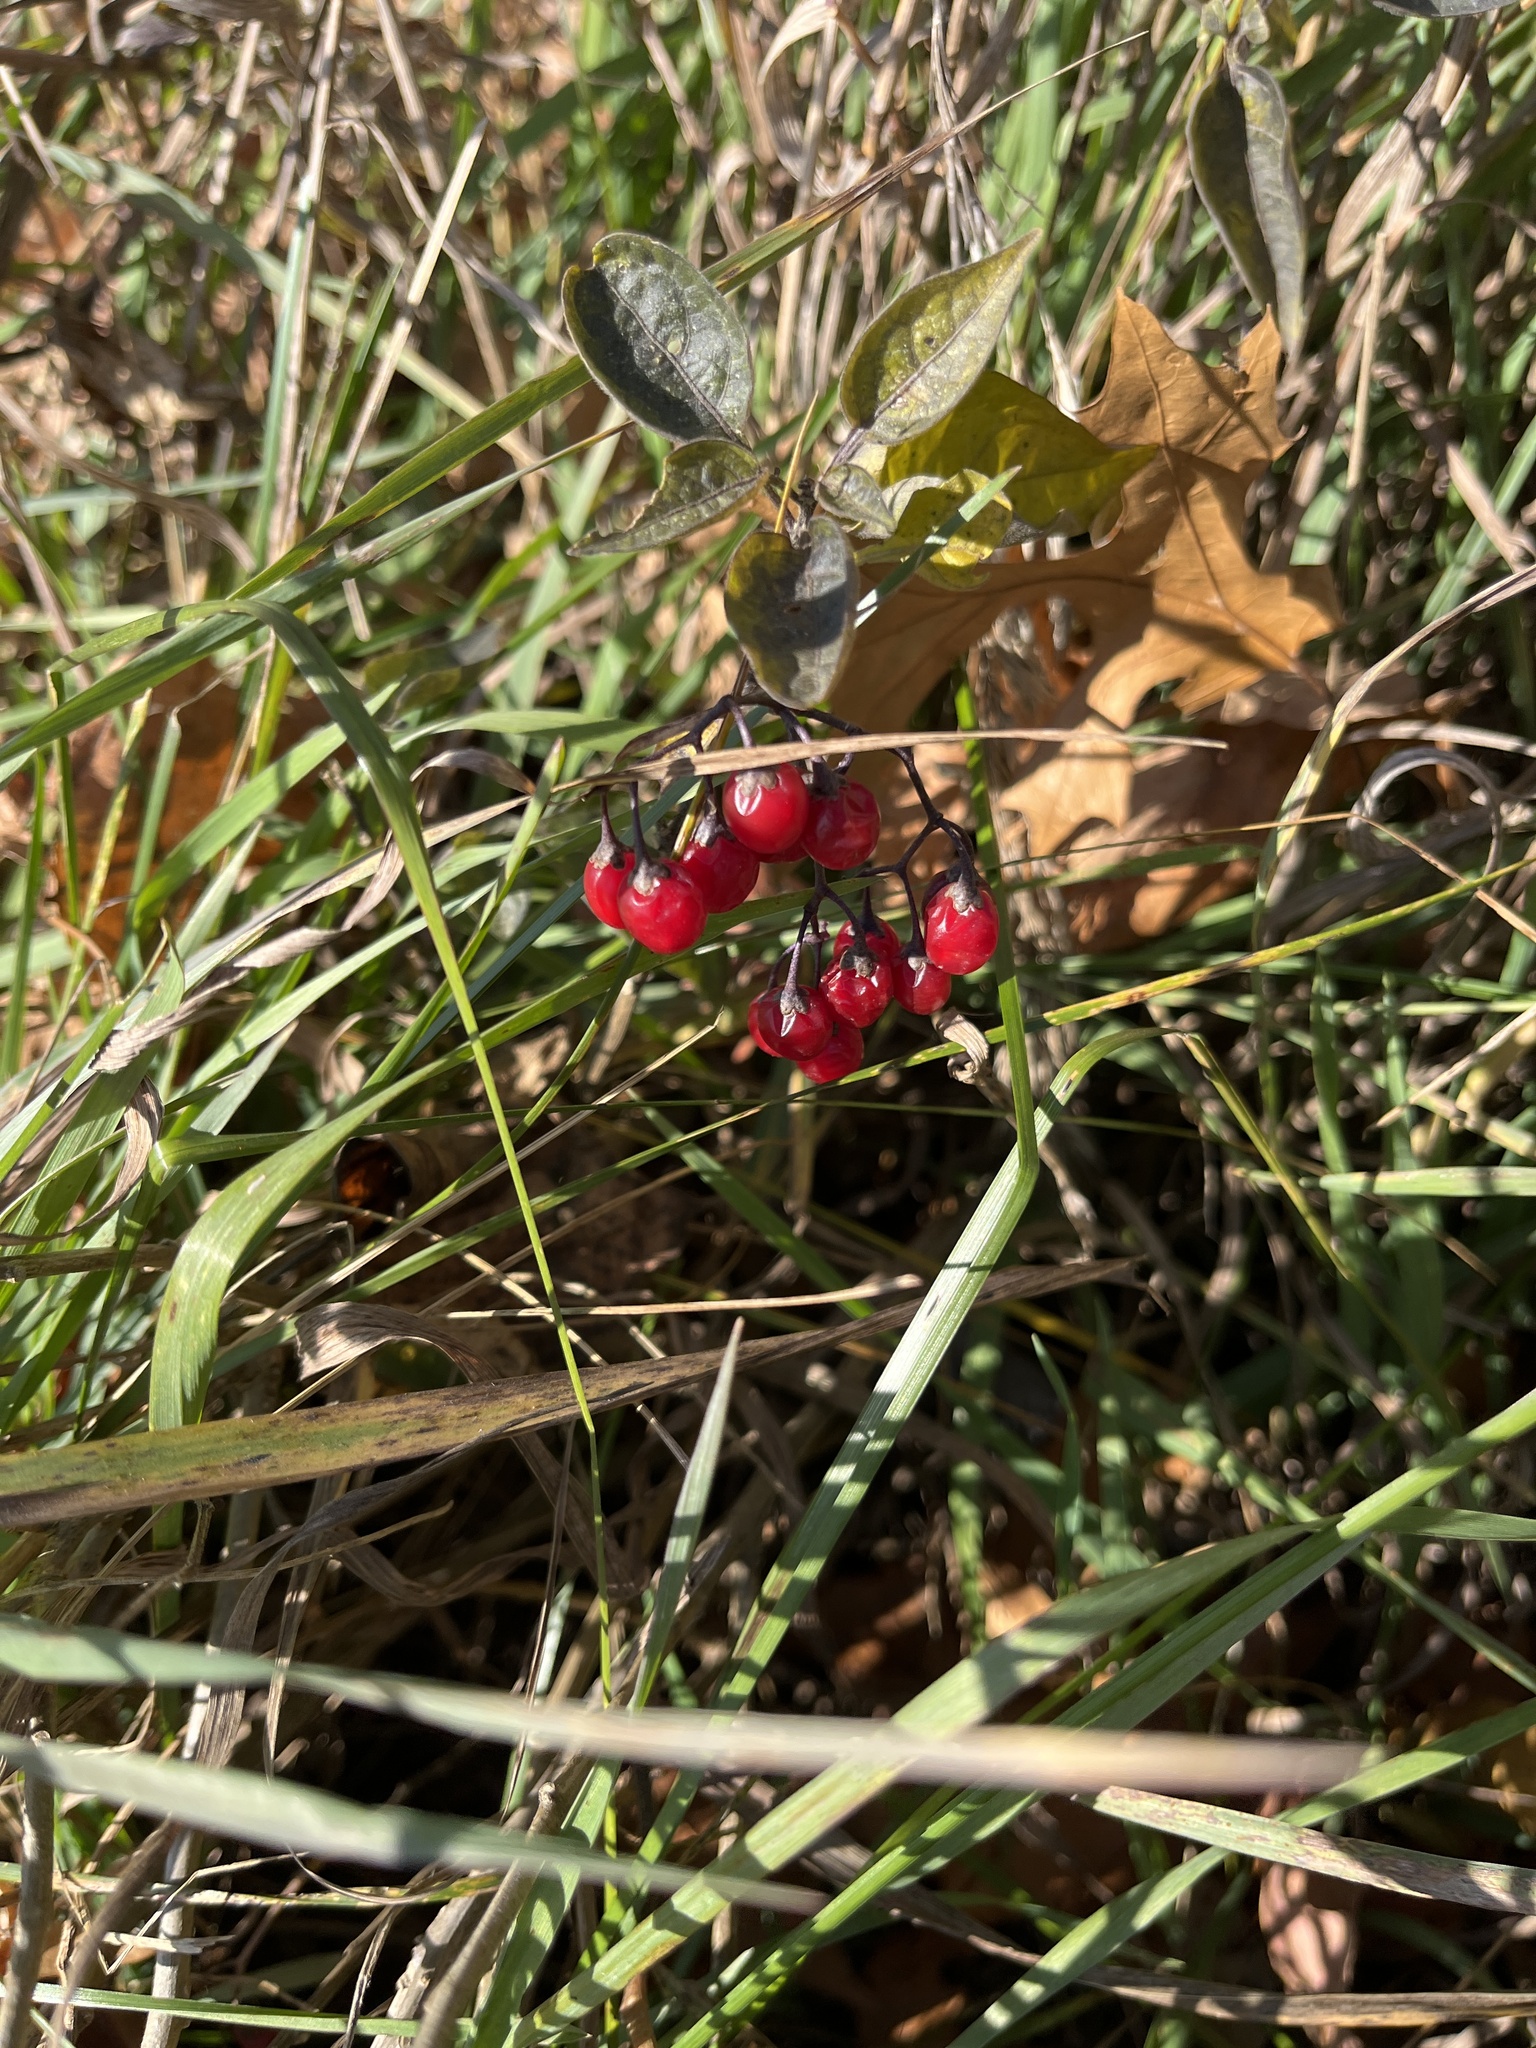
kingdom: Plantae
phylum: Tracheophyta
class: Magnoliopsida
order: Solanales
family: Solanaceae
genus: Solanum
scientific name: Solanum dulcamara
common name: Climbing nightshade
